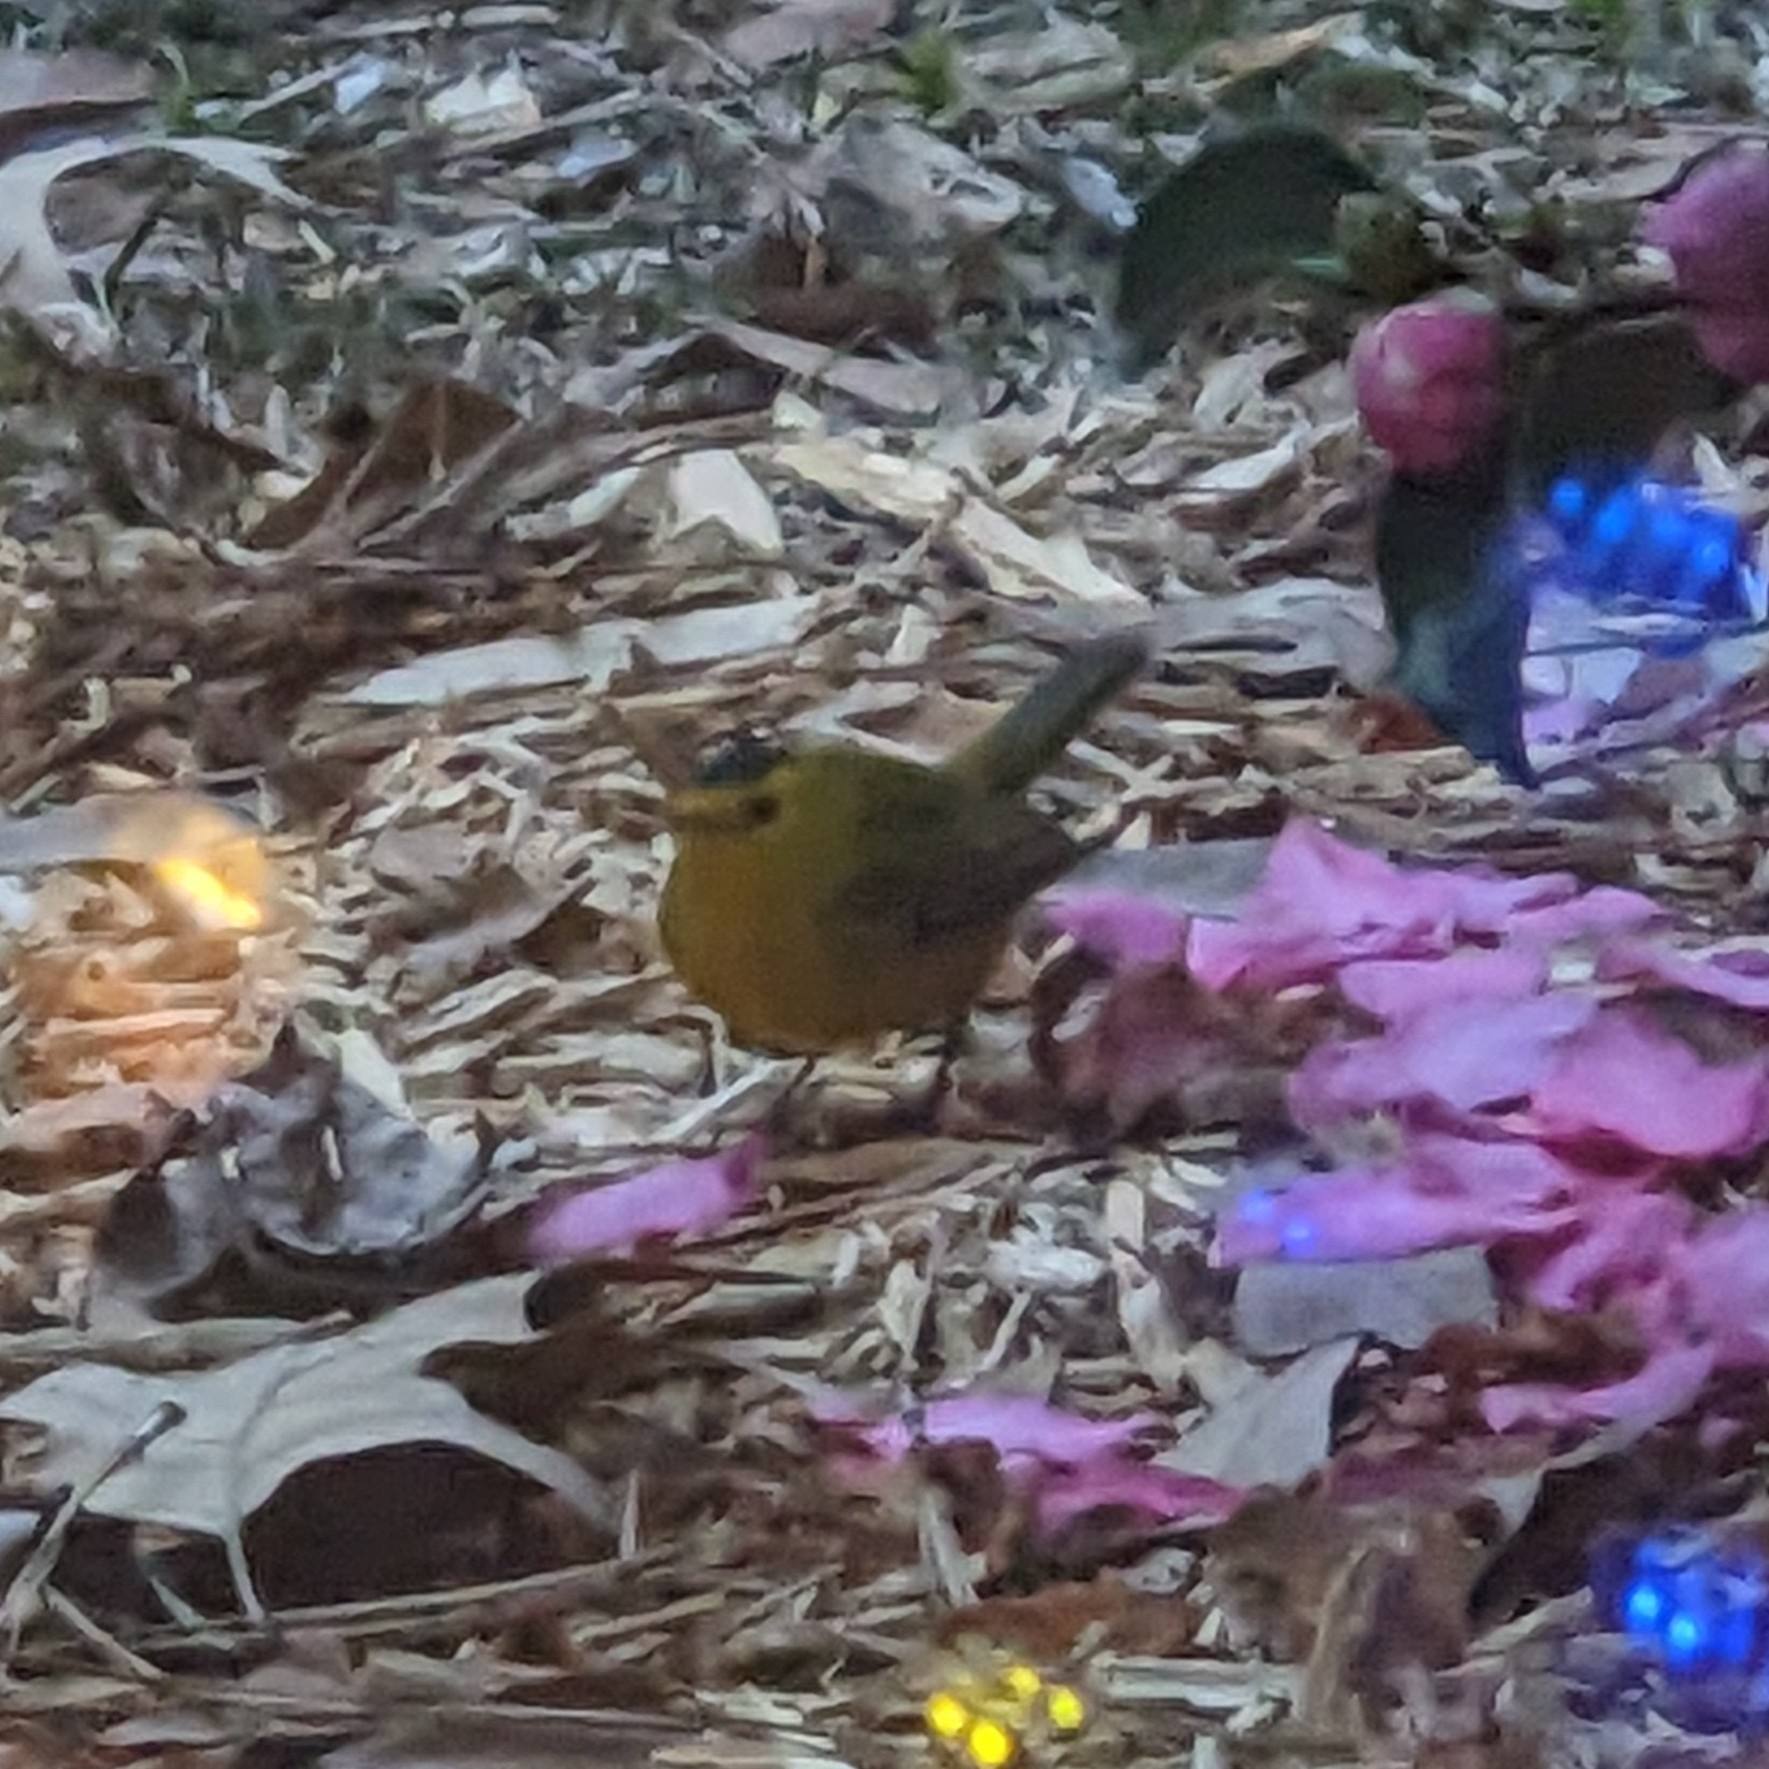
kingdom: Animalia
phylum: Chordata
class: Aves
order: Passeriformes
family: Parulidae
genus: Cardellina
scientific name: Cardellina pusilla
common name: Wilson's warbler
